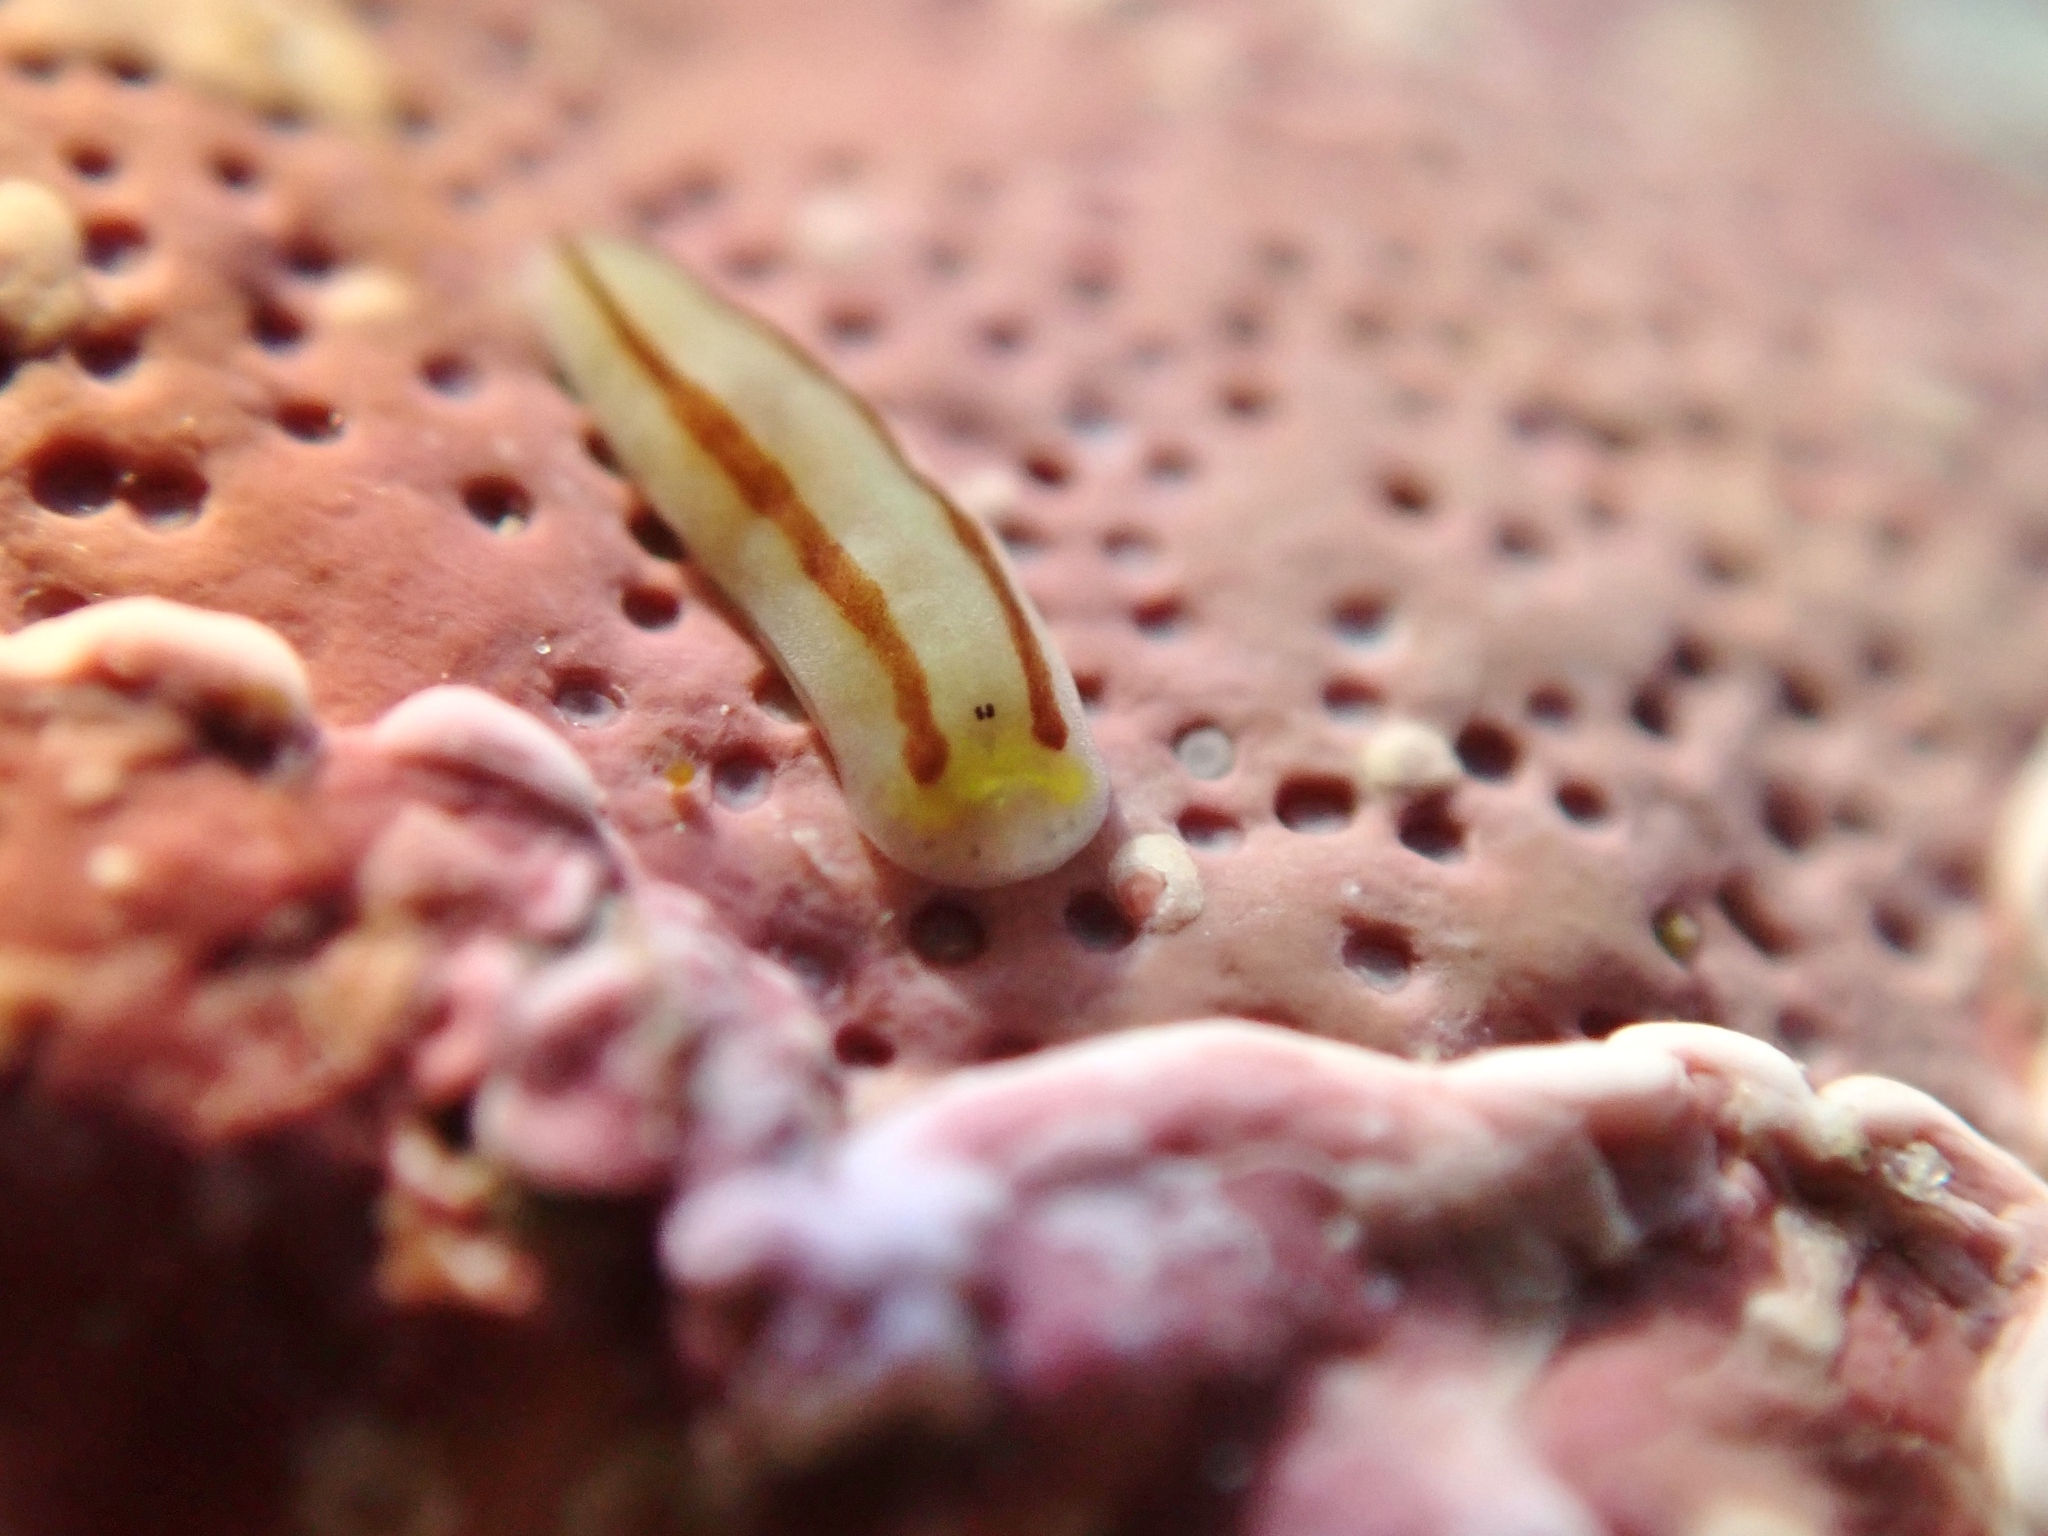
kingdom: Animalia
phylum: Platyhelminthes
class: Turbellaria
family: Chromoplanidae
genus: Chromoplana
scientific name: Chromoplana sirena
